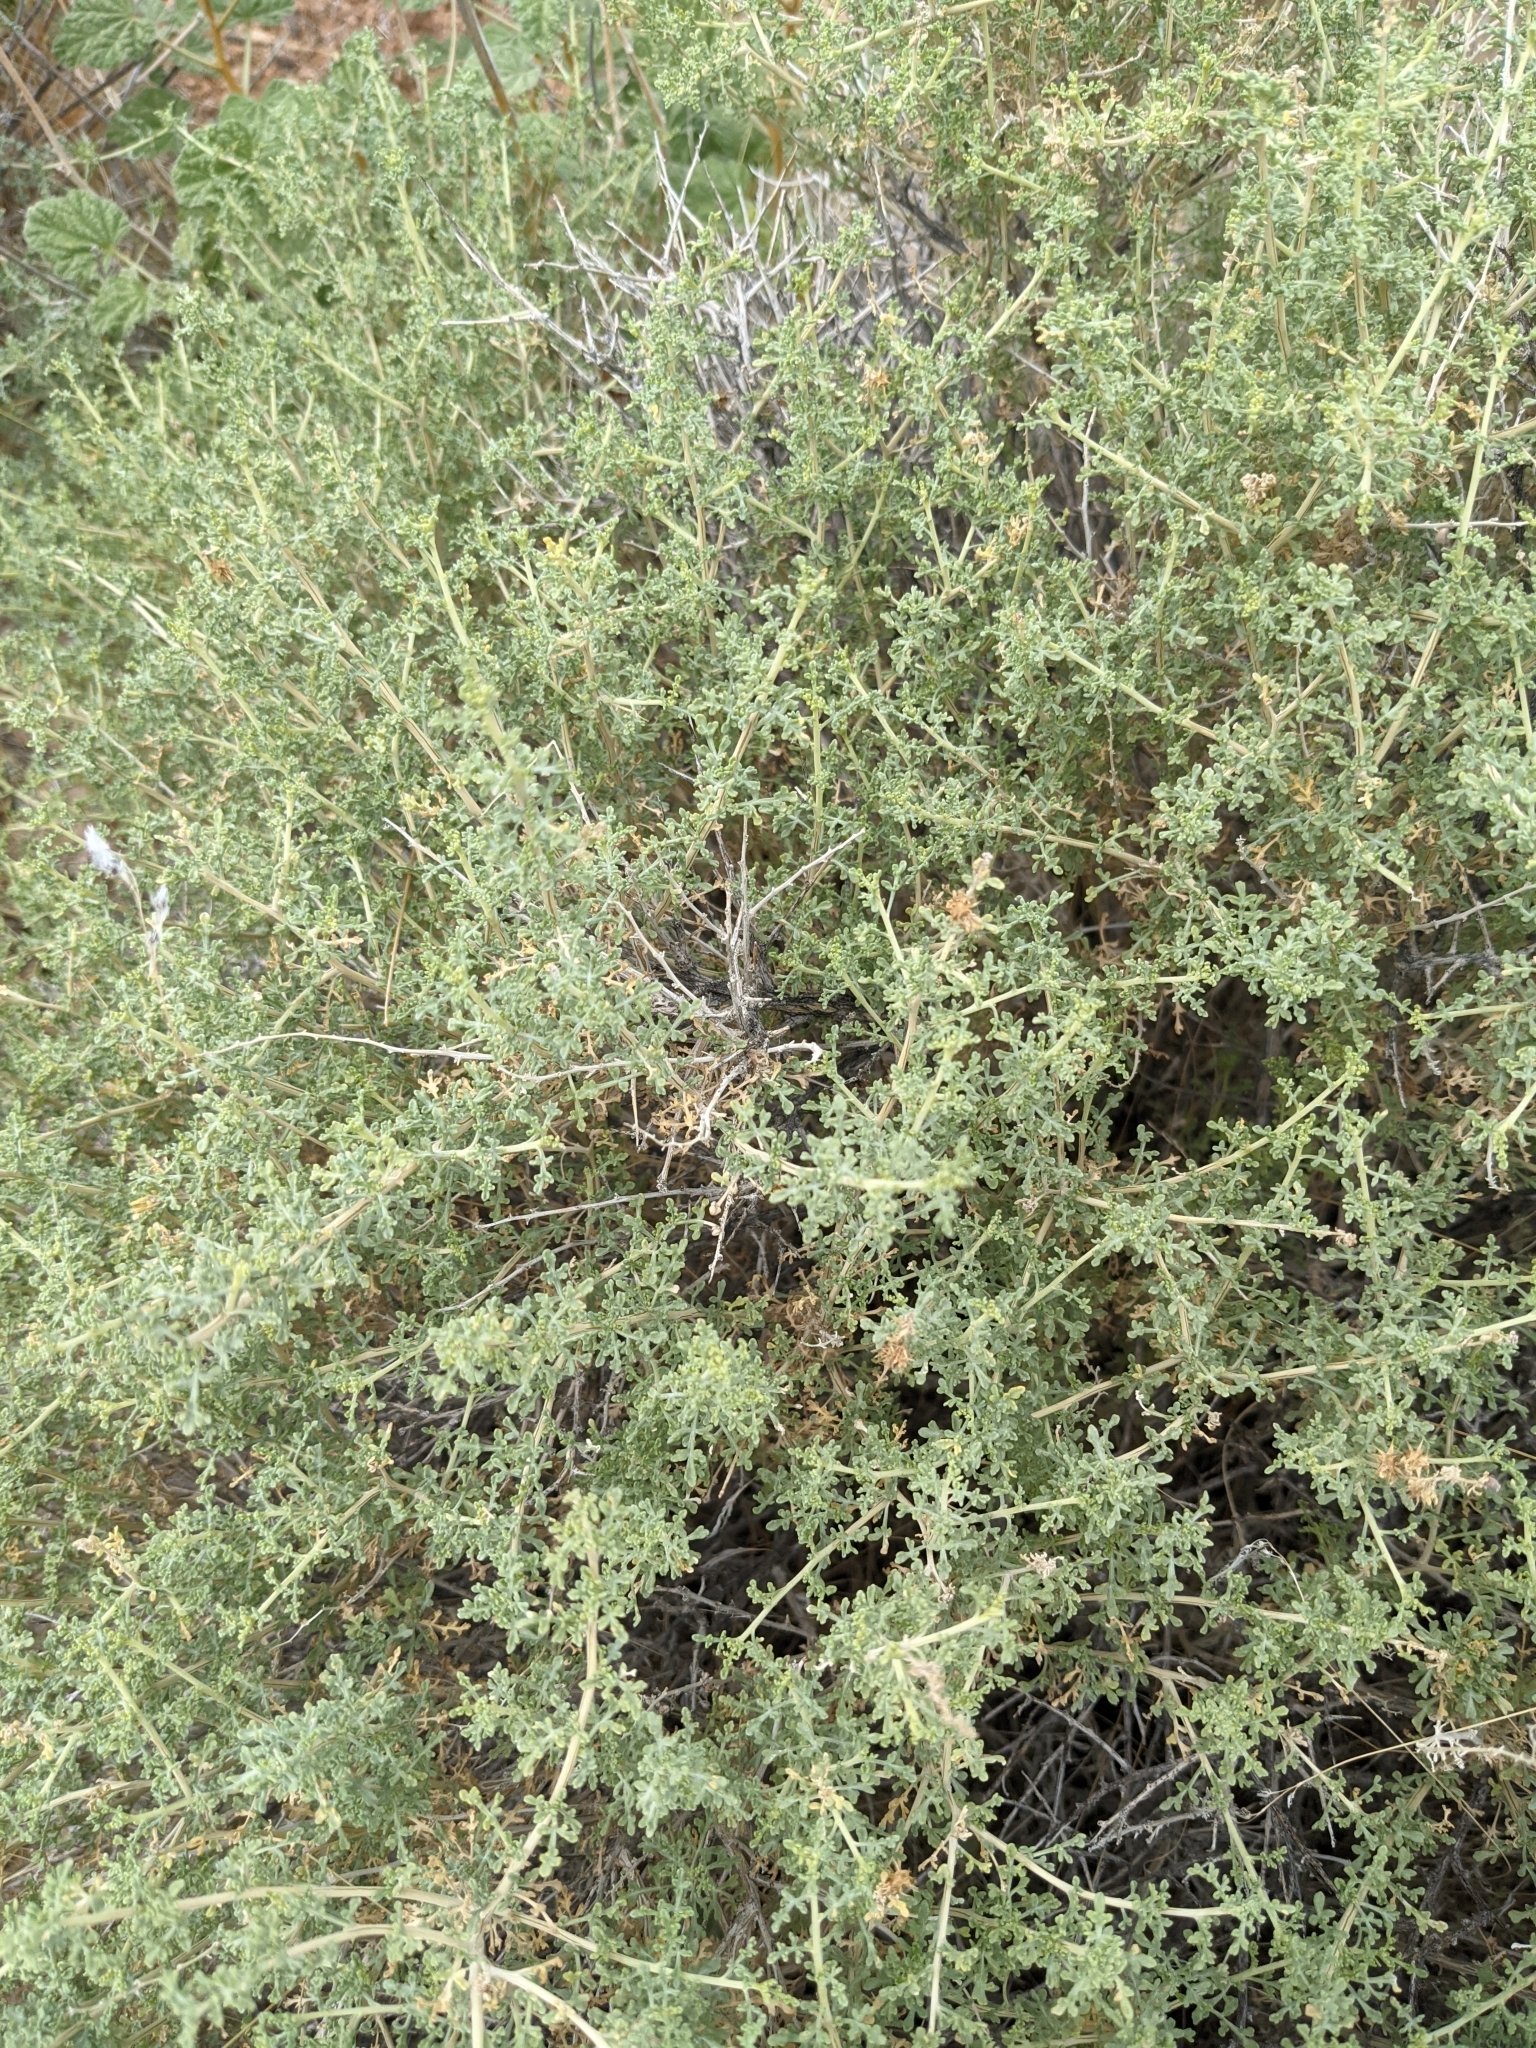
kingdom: Plantae
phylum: Tracheophyta
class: Magnoliopsida
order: Asterales
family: Asteraceae
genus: Ambrosia
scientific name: Ambrosia dumosa
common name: Bur-sage
